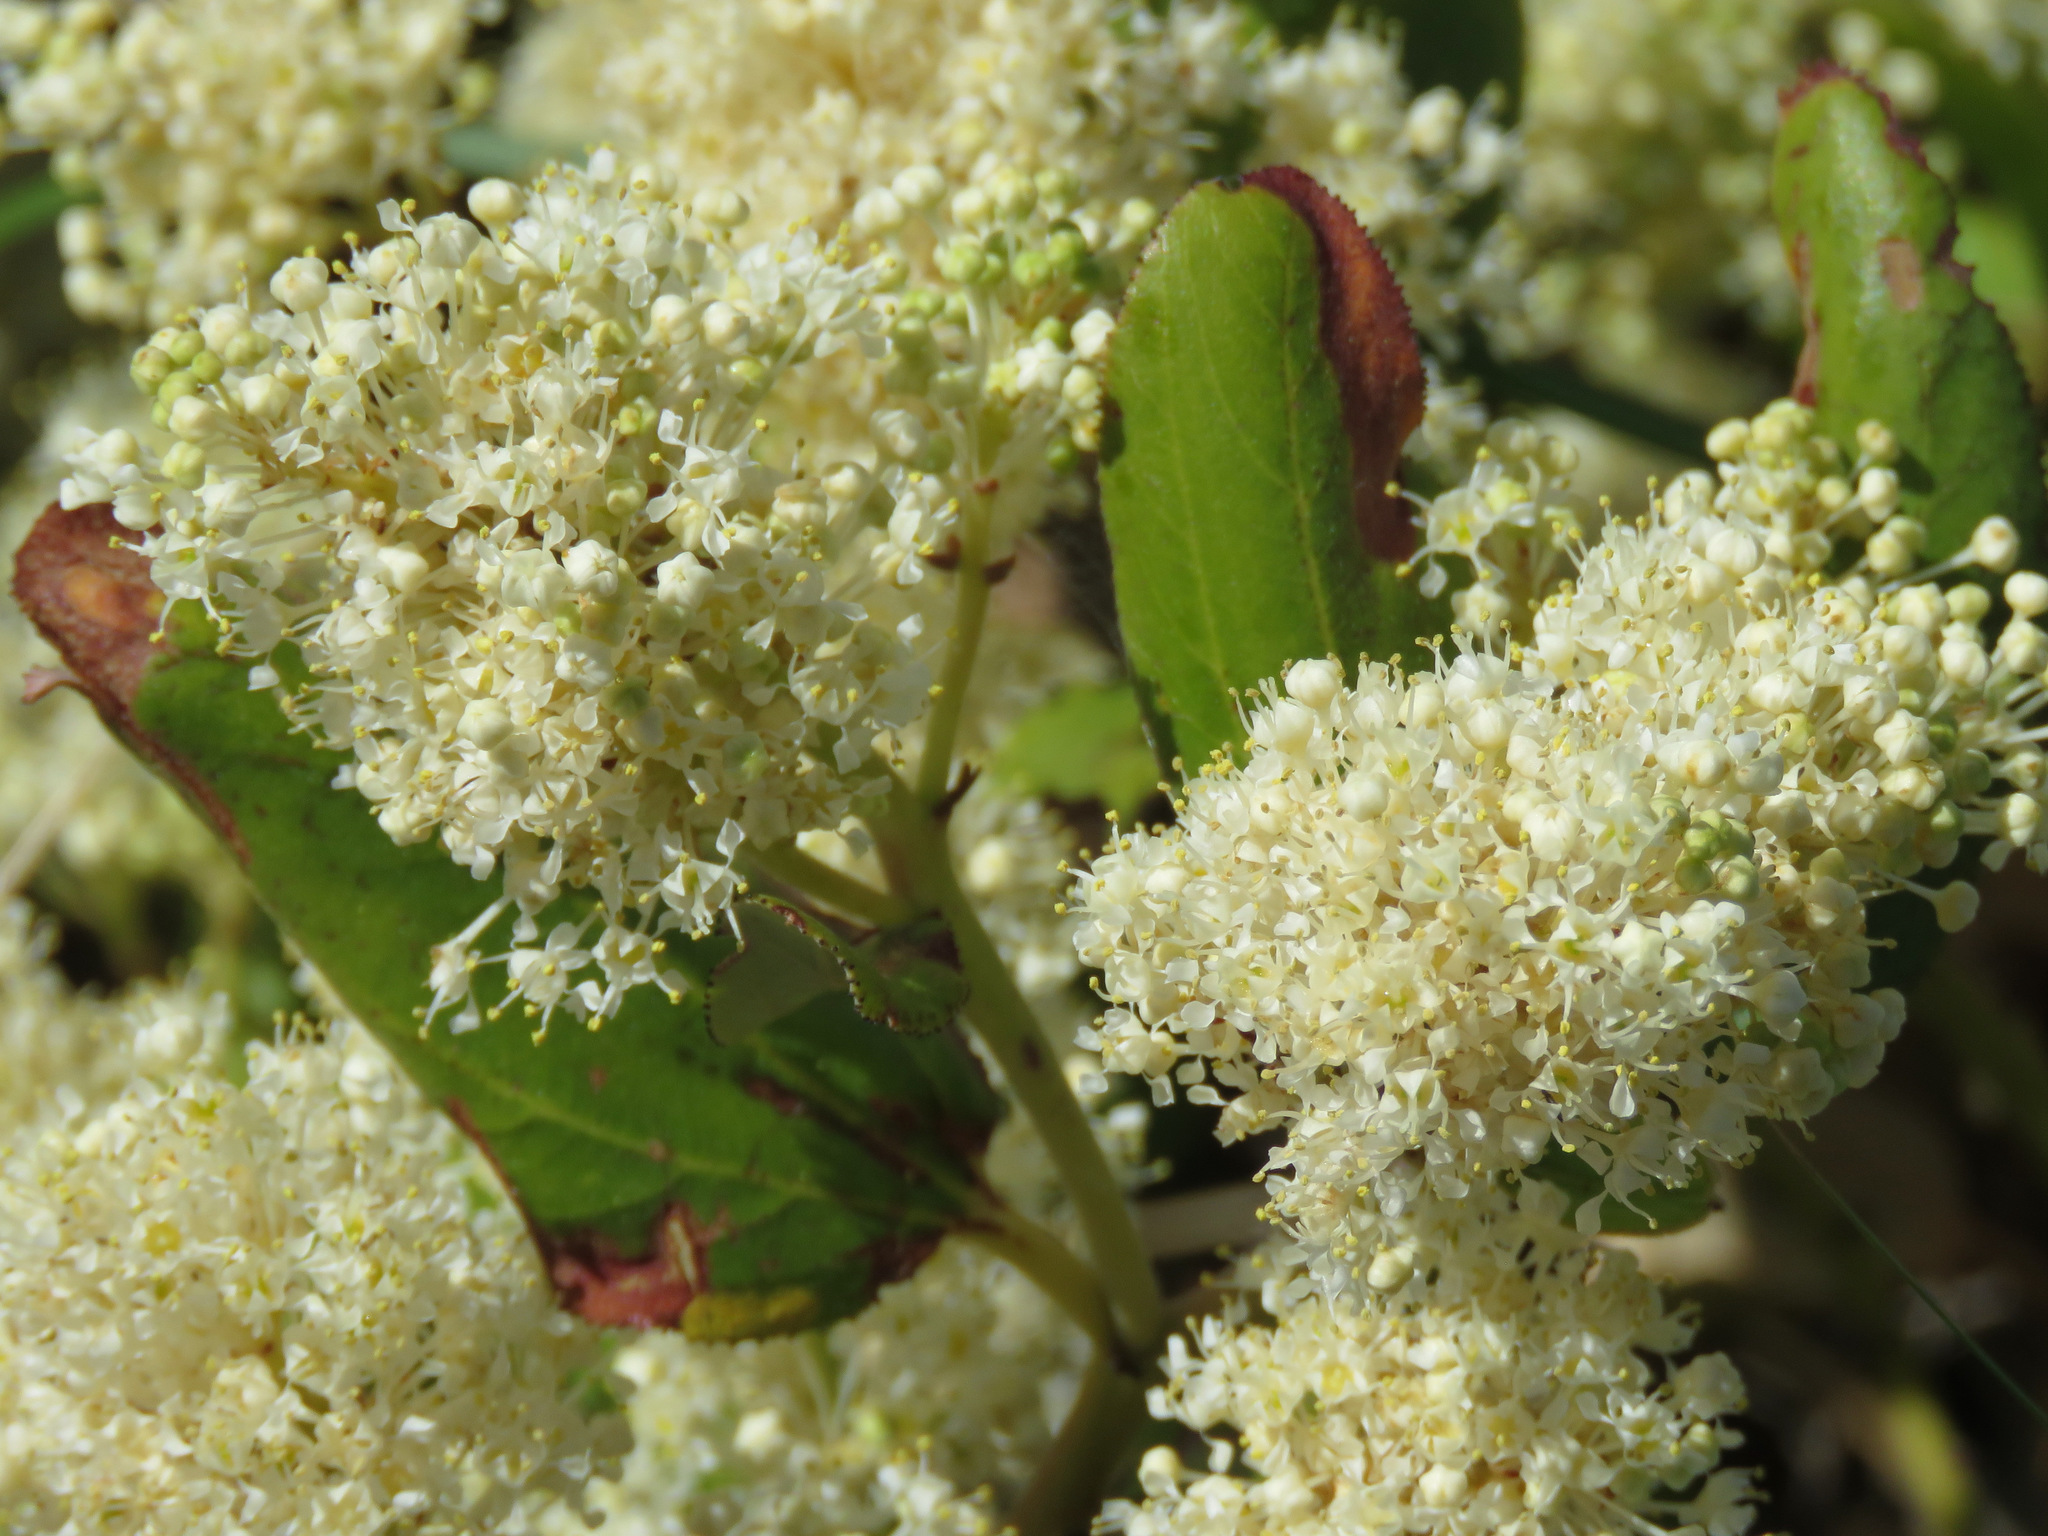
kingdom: Plantae
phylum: Tracheophyta
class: Magnoliopsida
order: Rosales
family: Rhamnaceae
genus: Ceanothus
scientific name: Ceanothus velutinus
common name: Snowbrush
